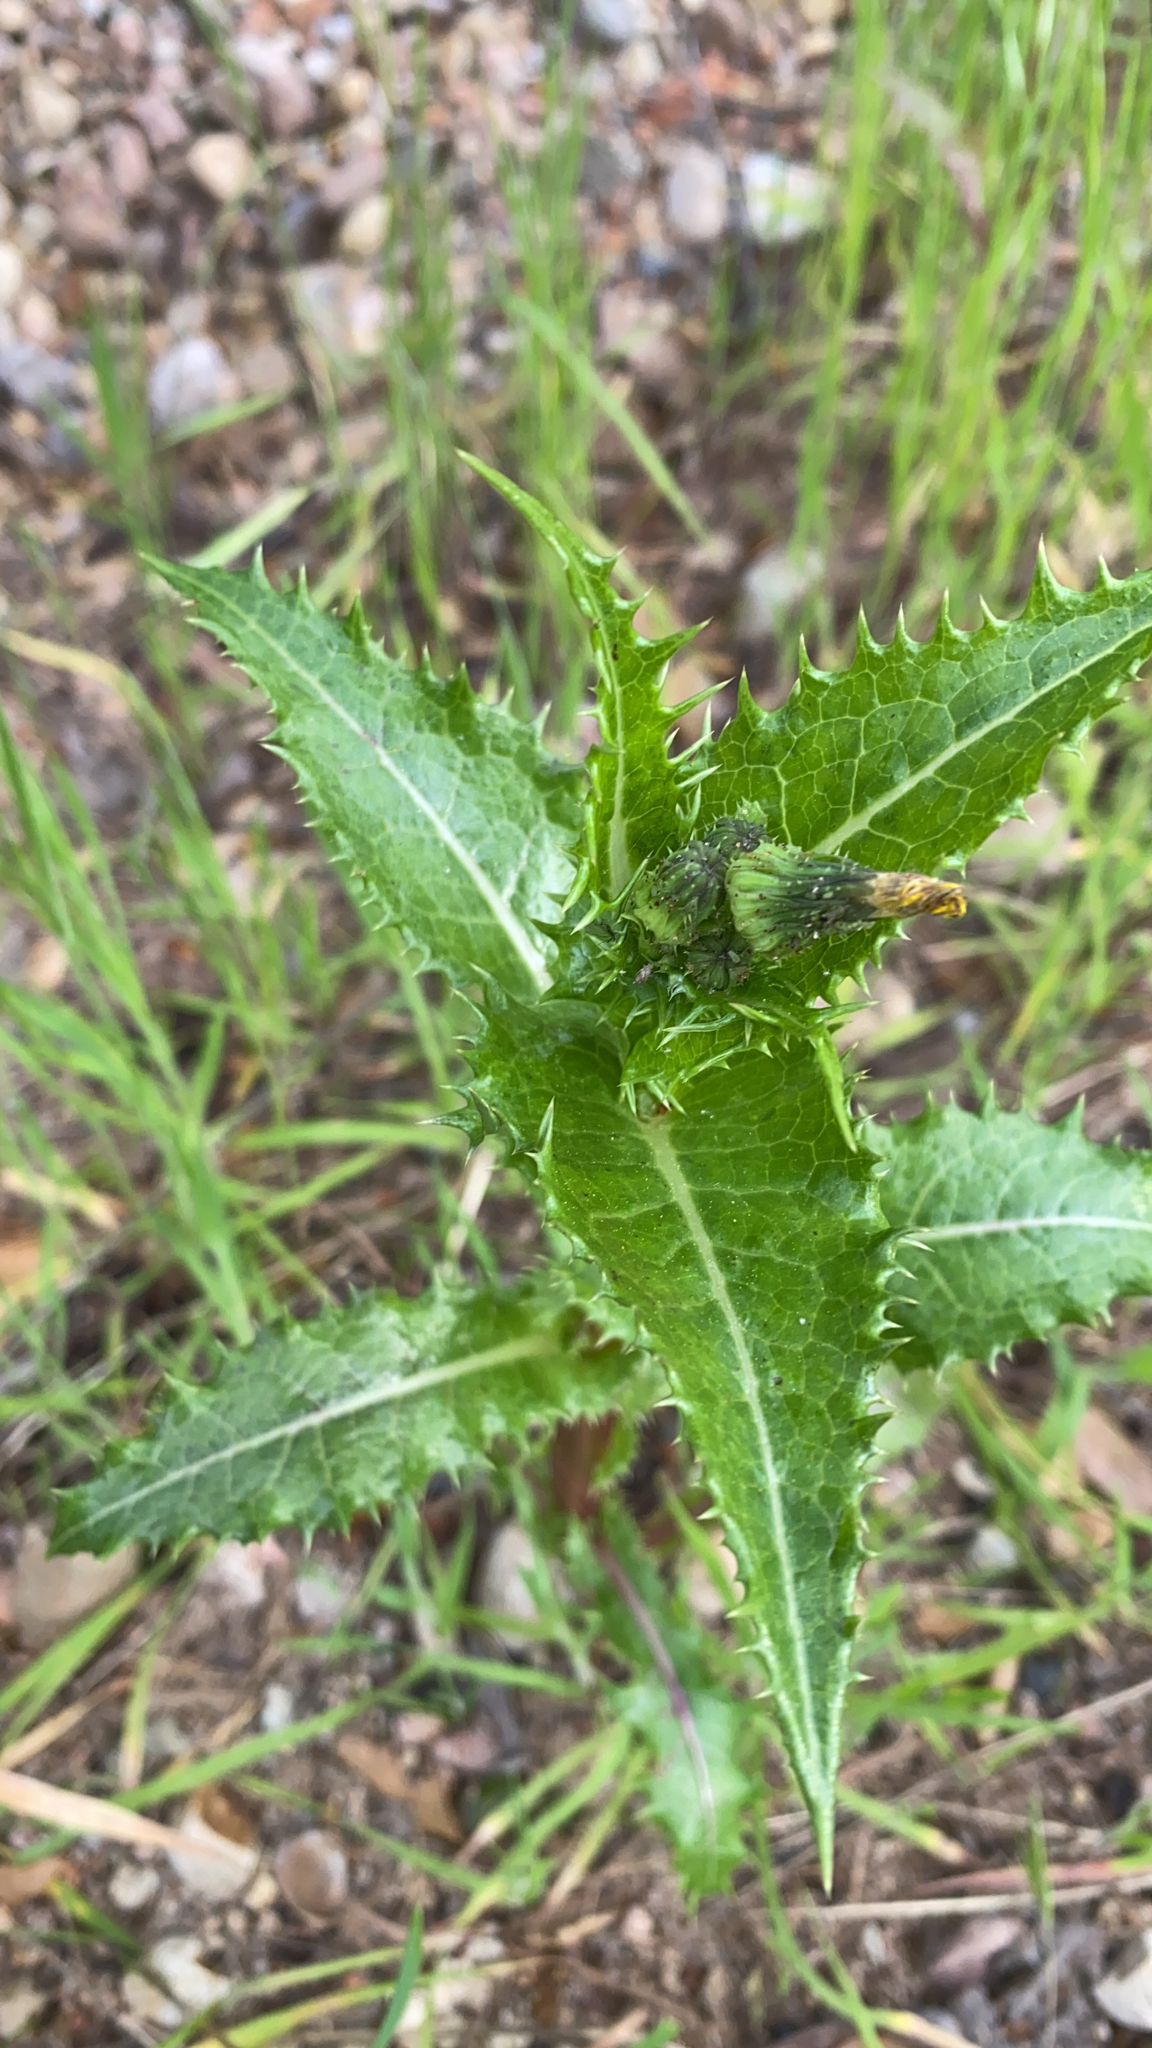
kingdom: Plantae
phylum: Tracheophyta
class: Magnoliopsida
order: Asterales
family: Asteraceae
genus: Sonchus
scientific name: Sonchus asper
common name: Prickly sow-thistle
